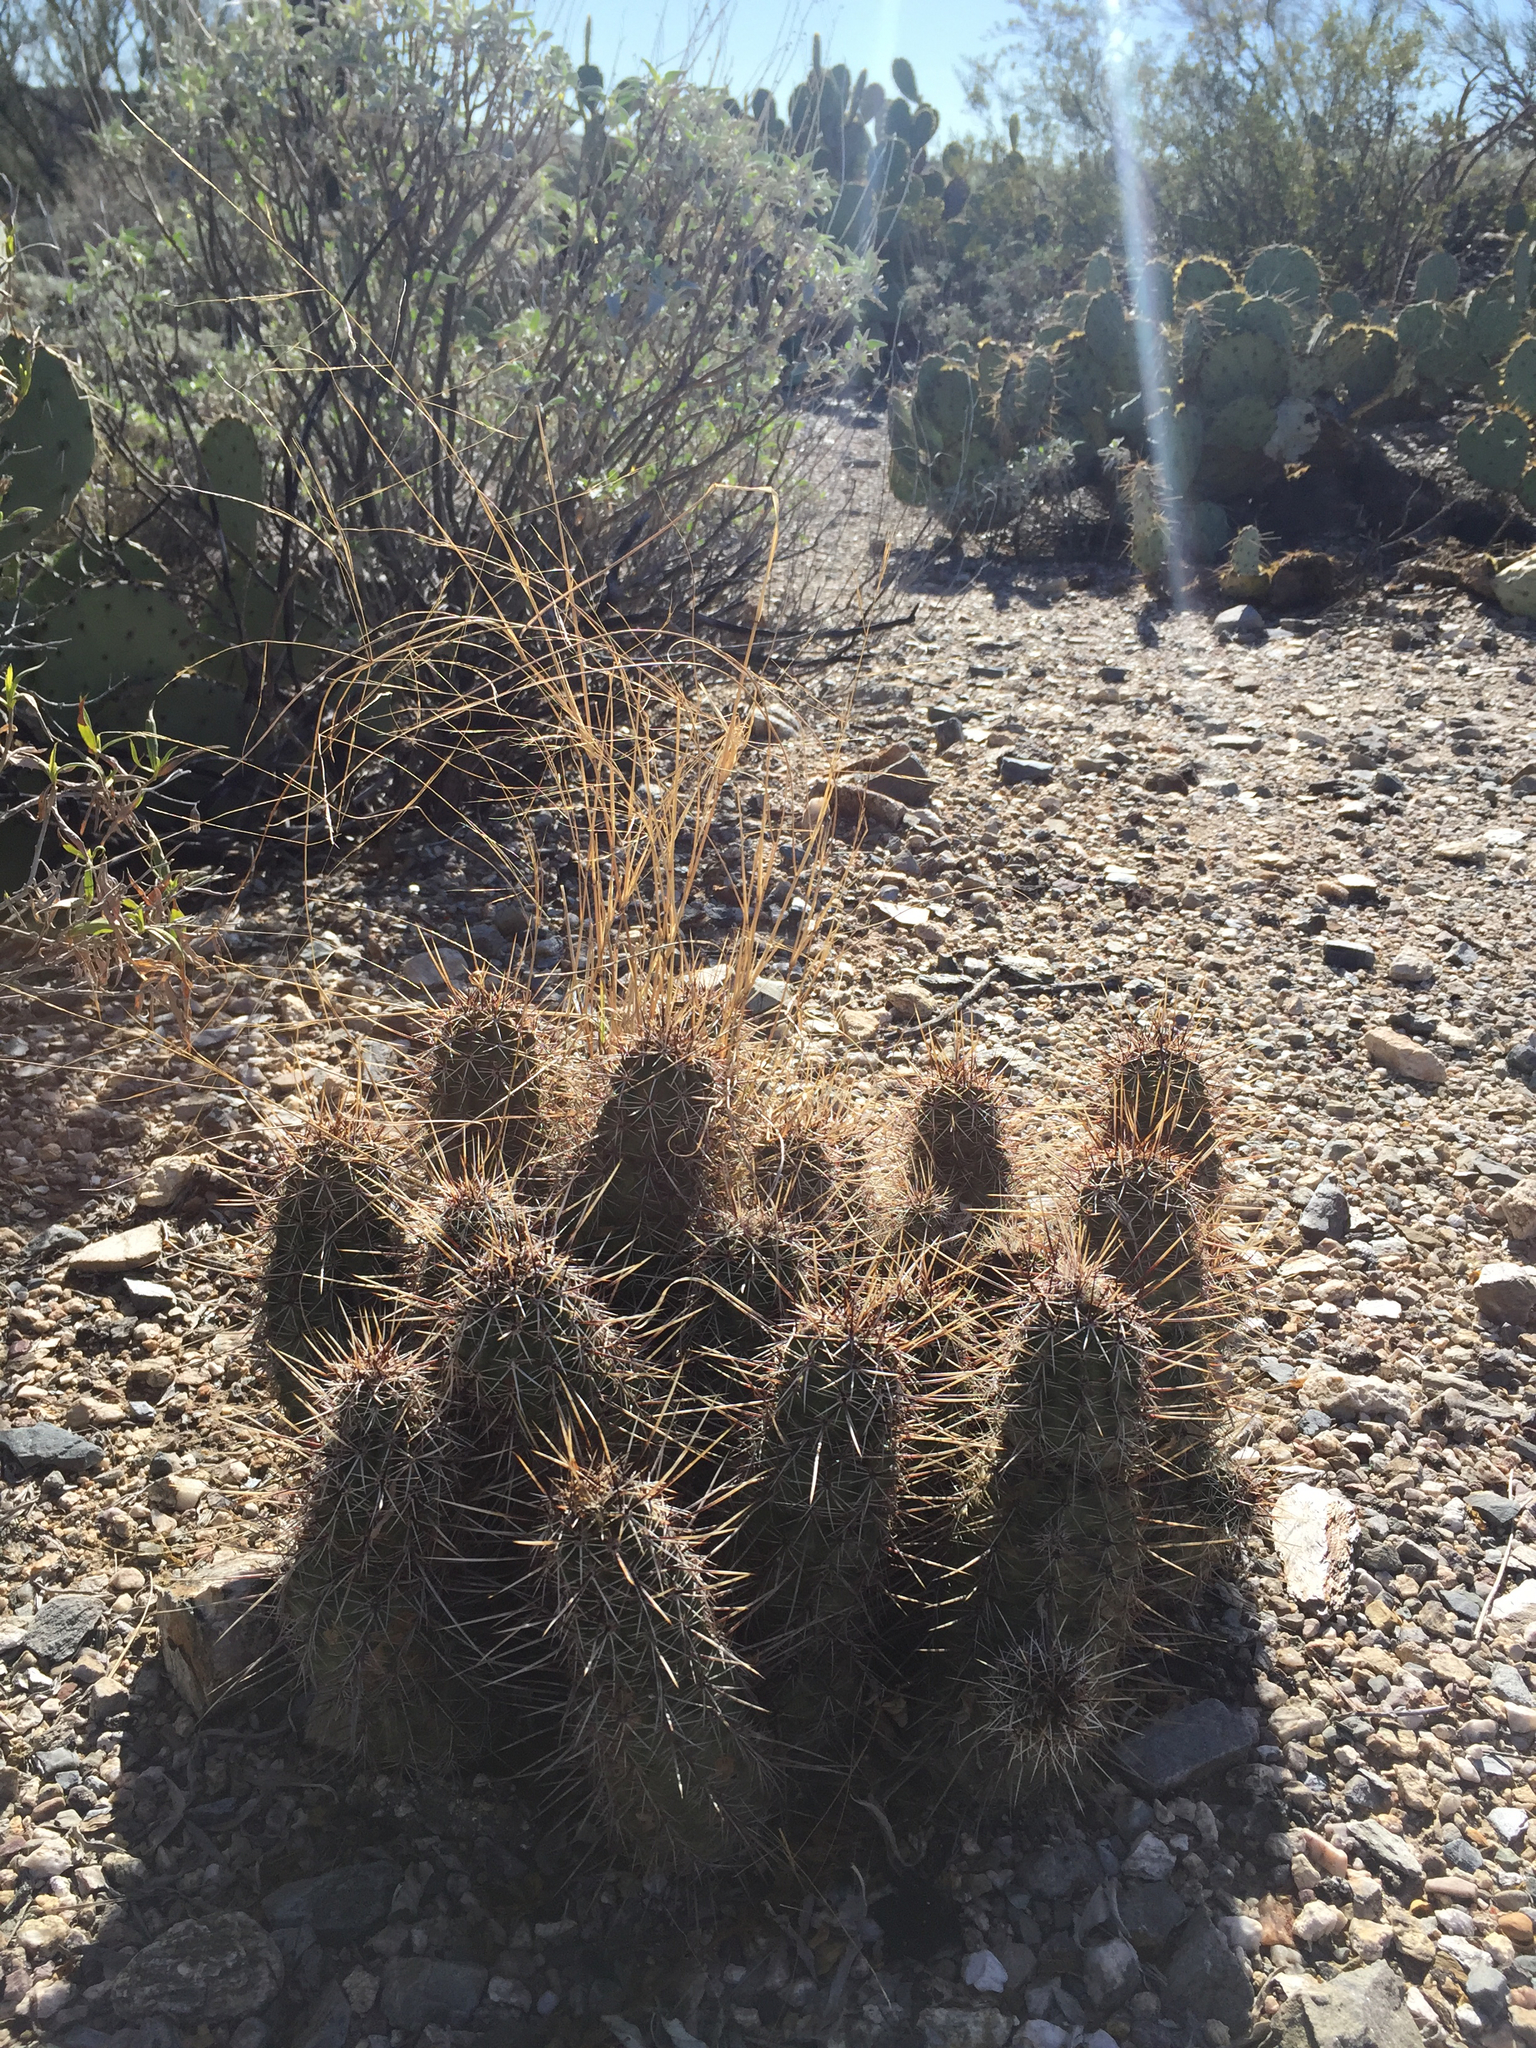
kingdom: Plantae
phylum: Tracheophyta
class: Magnoliopsida
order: Caryophyllales
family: Cactaceae
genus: Echinocereus
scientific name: Echinocereus fasciculatus
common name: Bundle hedgehog
